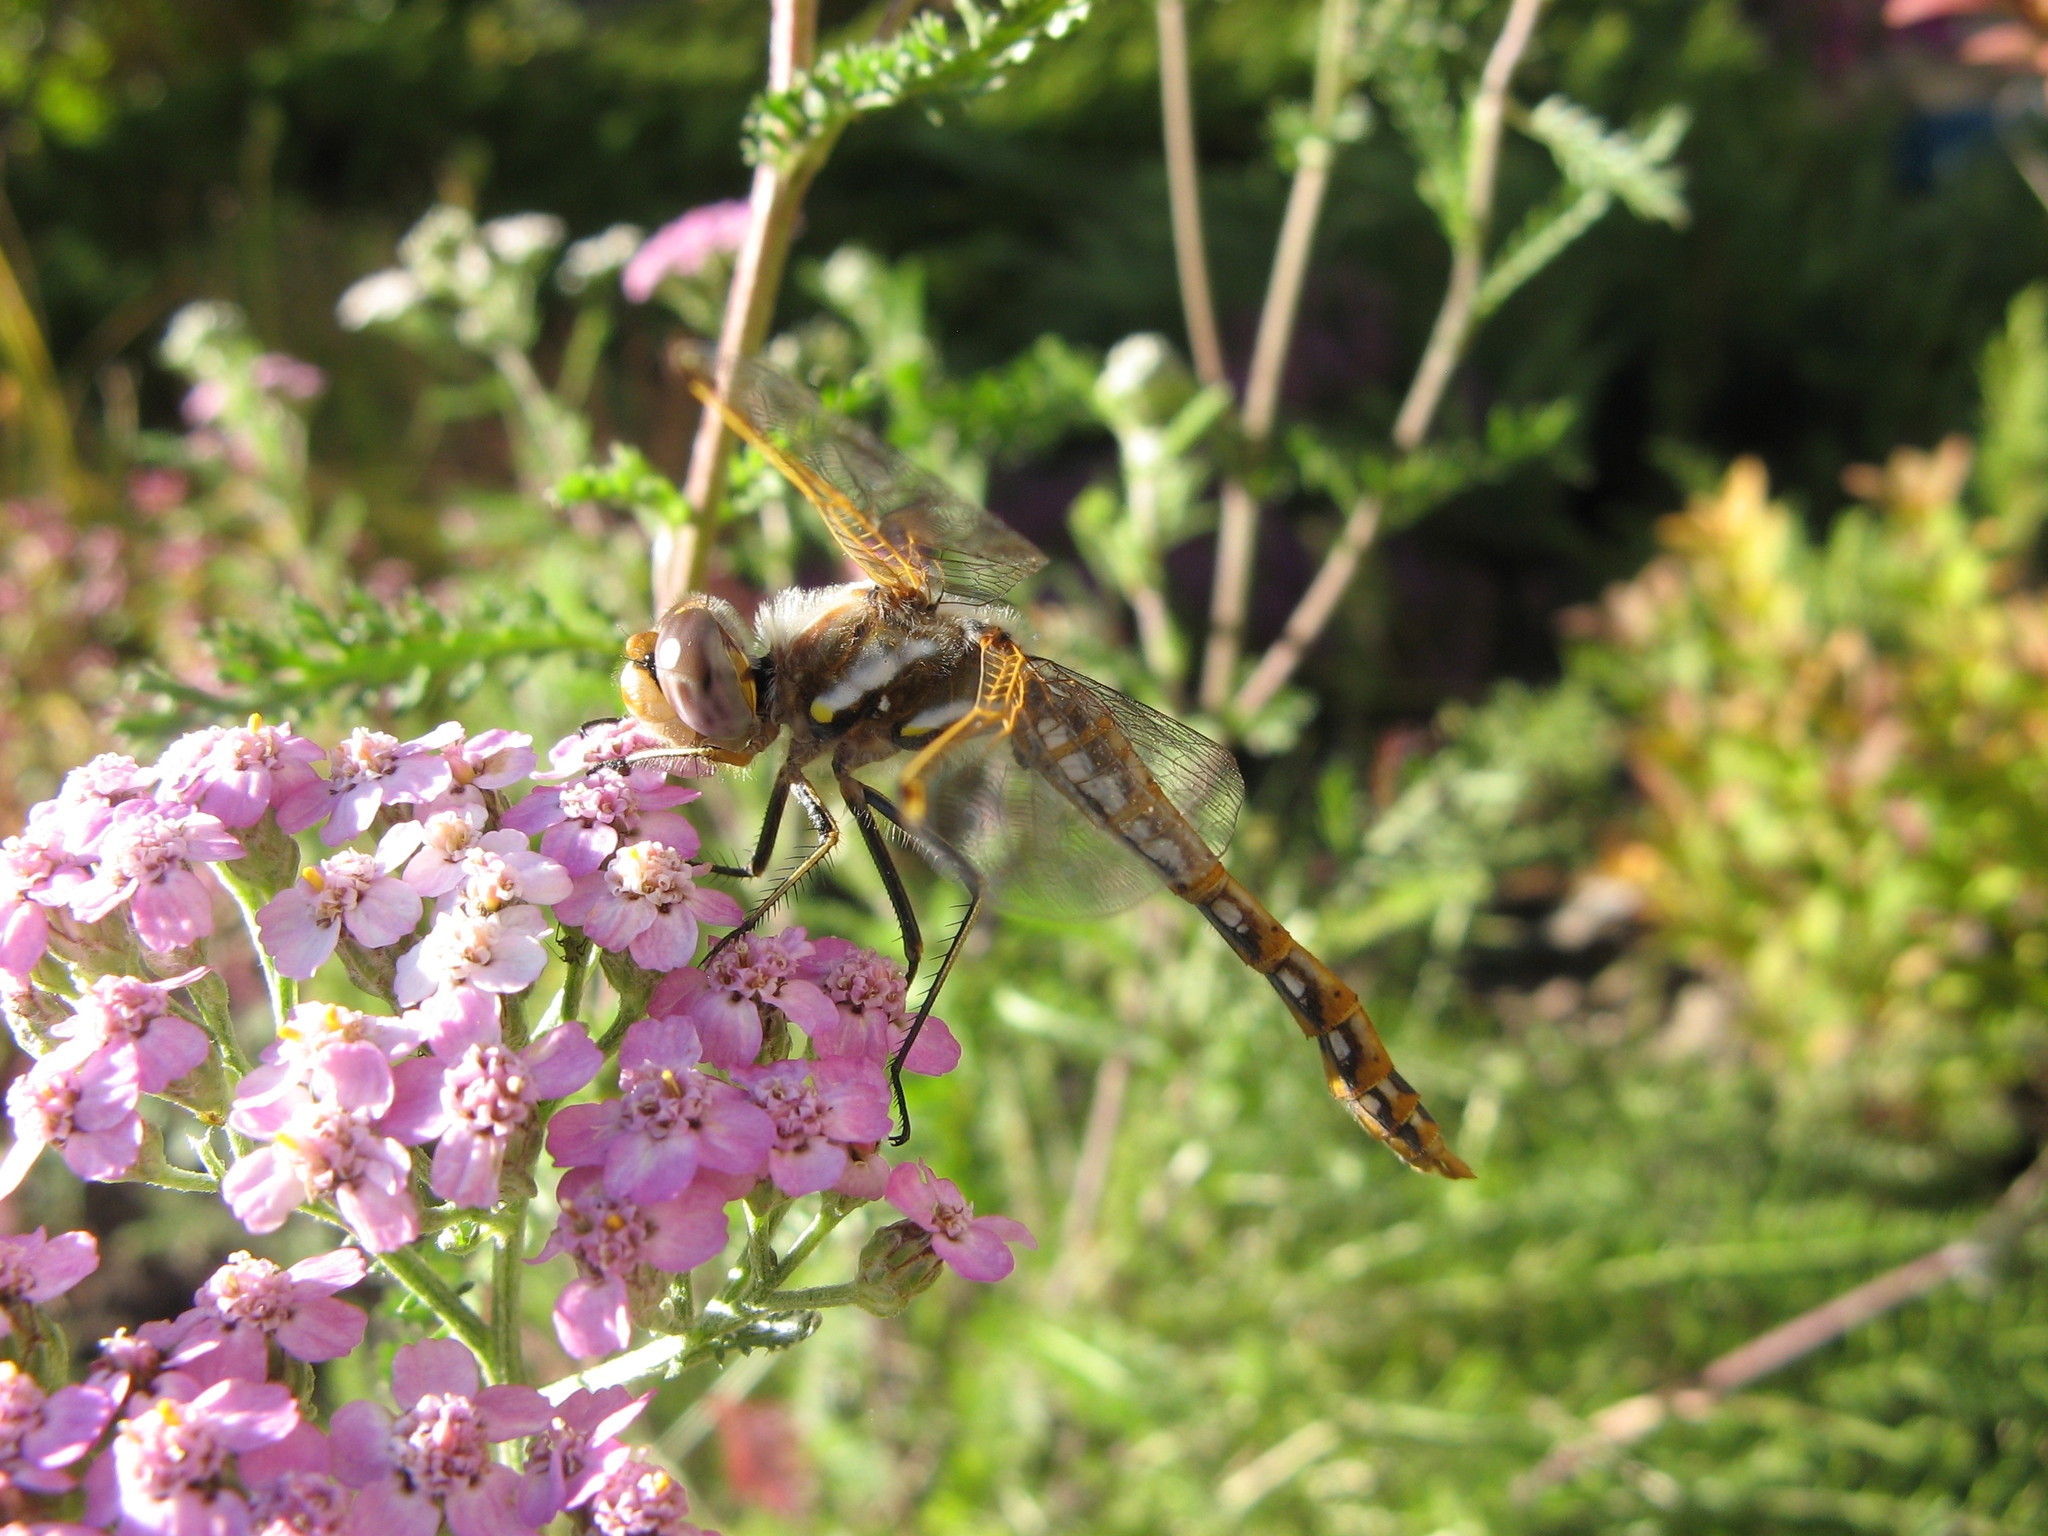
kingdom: Animalia
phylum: Arthropoda
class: Insecta
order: Odonata
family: Libellulidae
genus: Sympetrum
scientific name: Sympetrum corruptum
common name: Variegated meadowhawk
